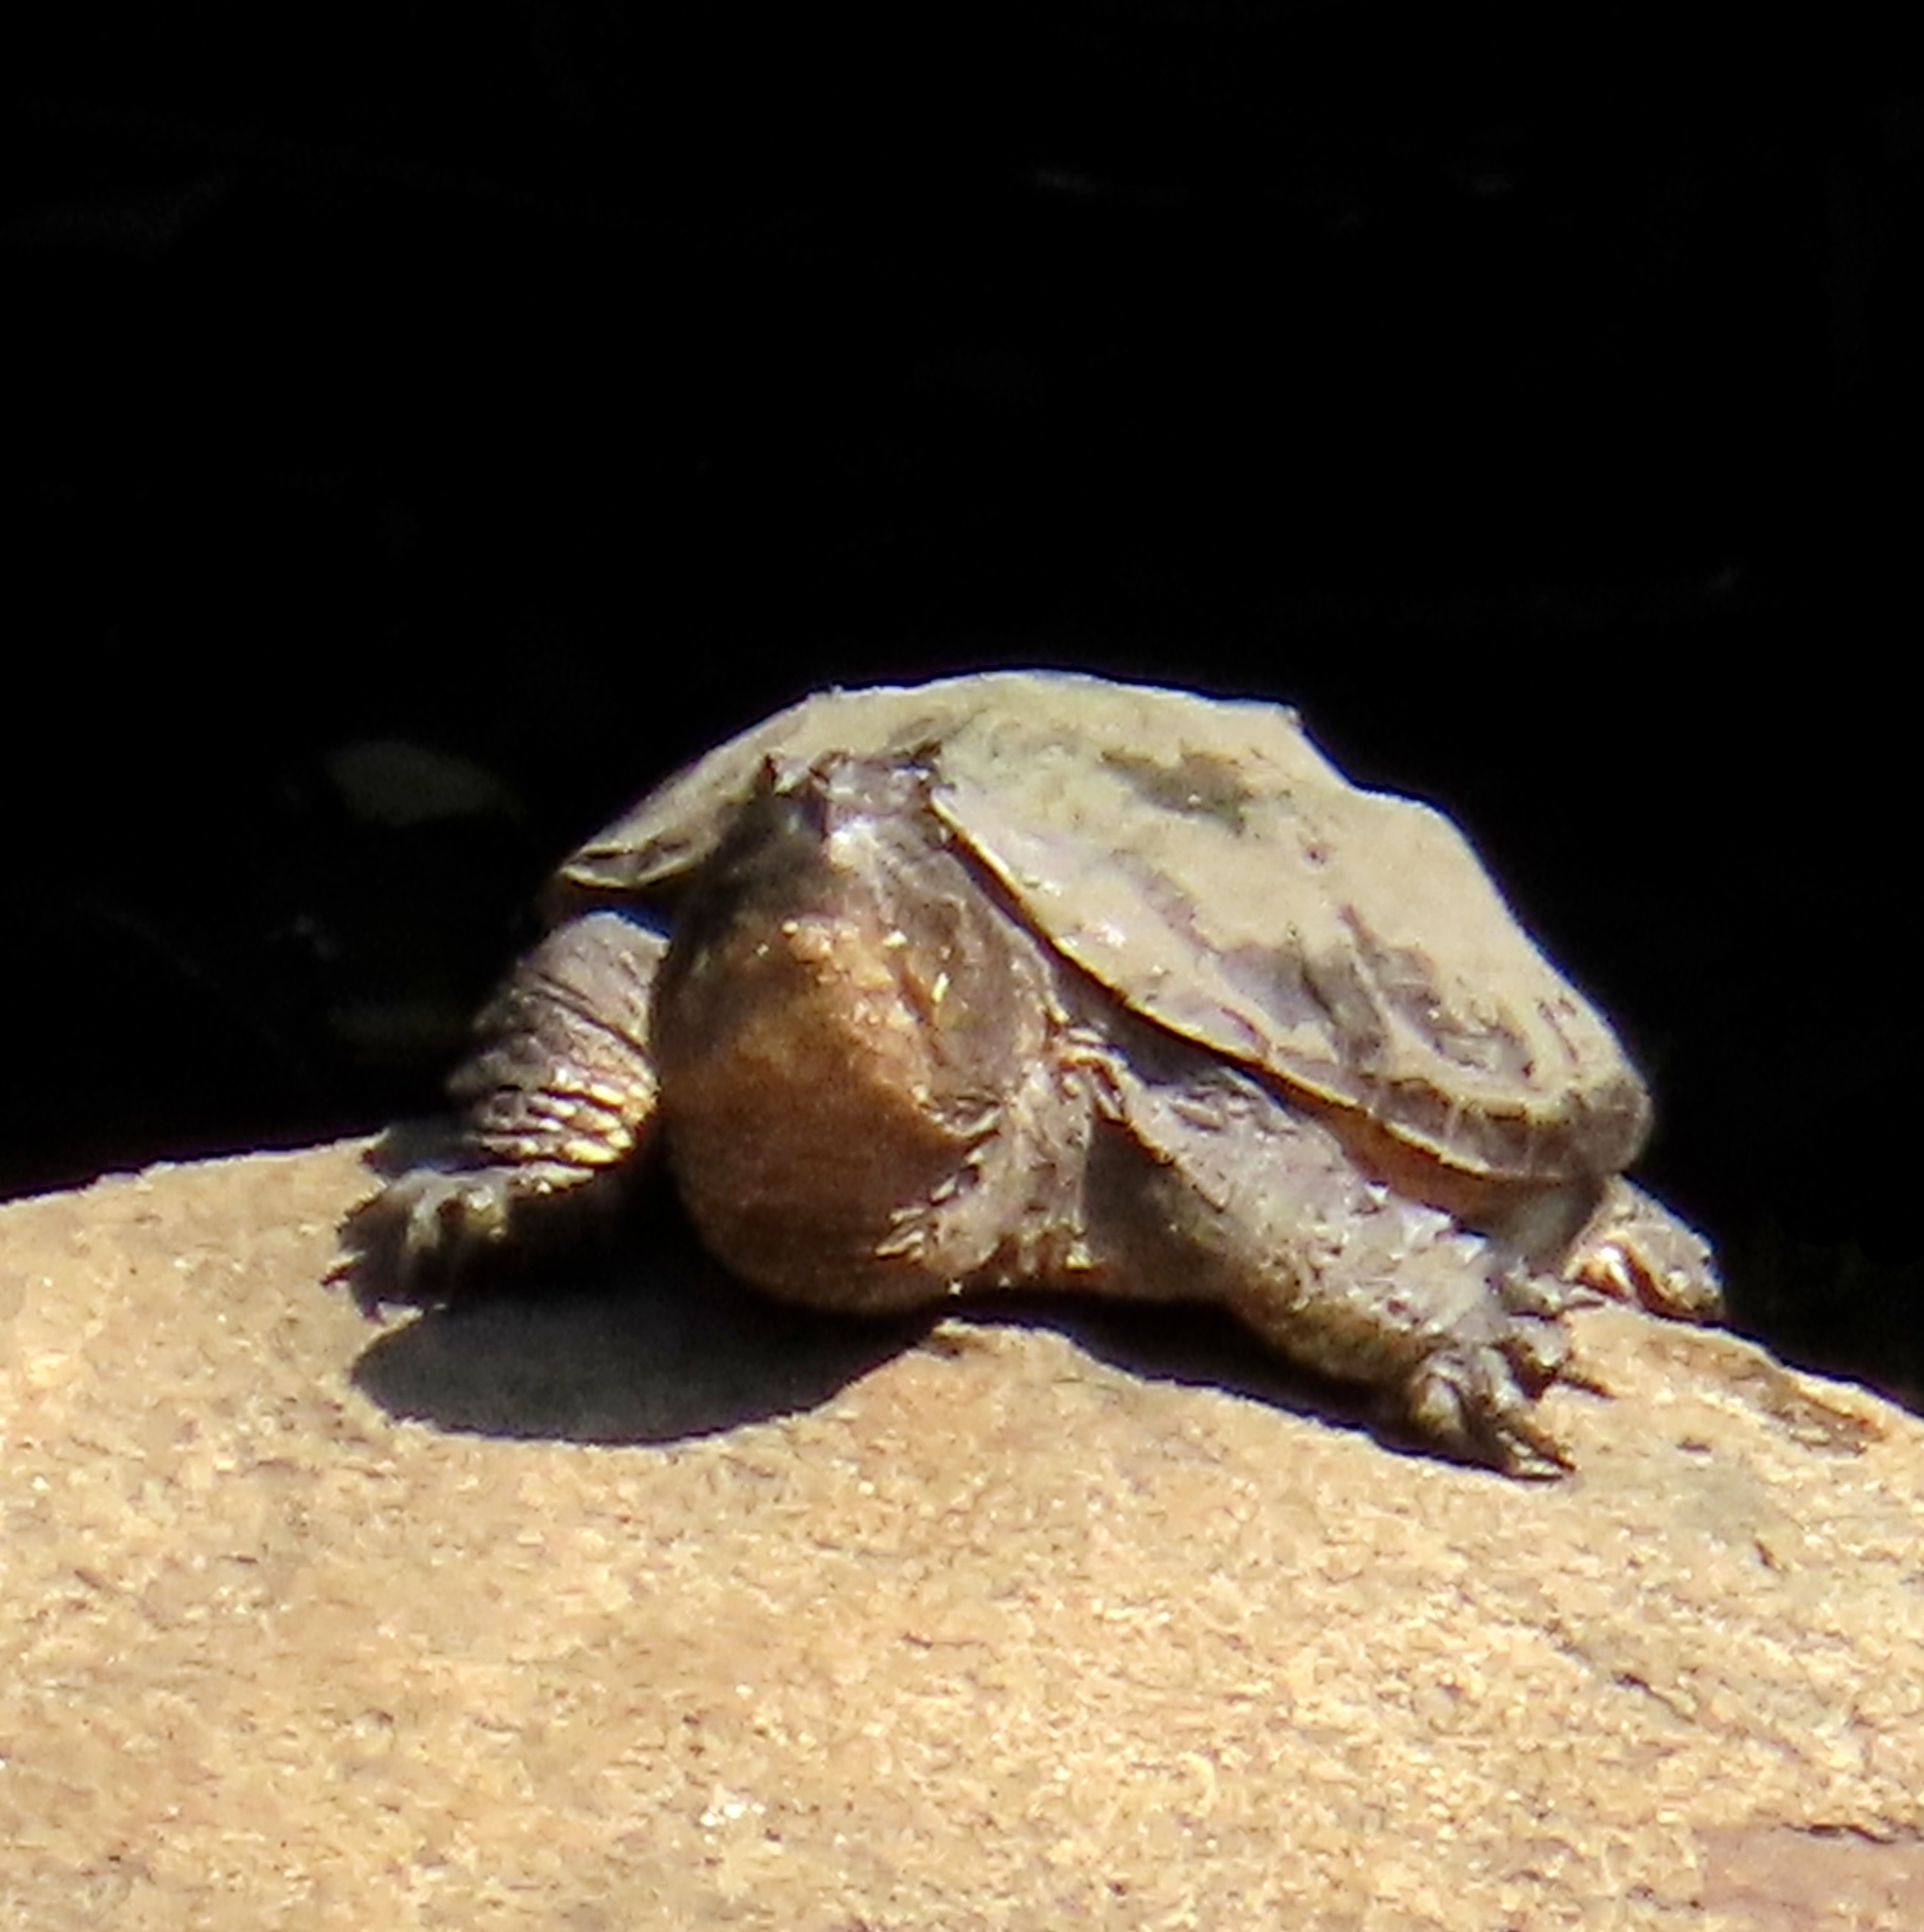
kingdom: Animalia
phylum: Chordata
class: Testudines
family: Chelydridae
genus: Chelydra
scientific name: Chelydra serpentina
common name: Common snapping turtle
